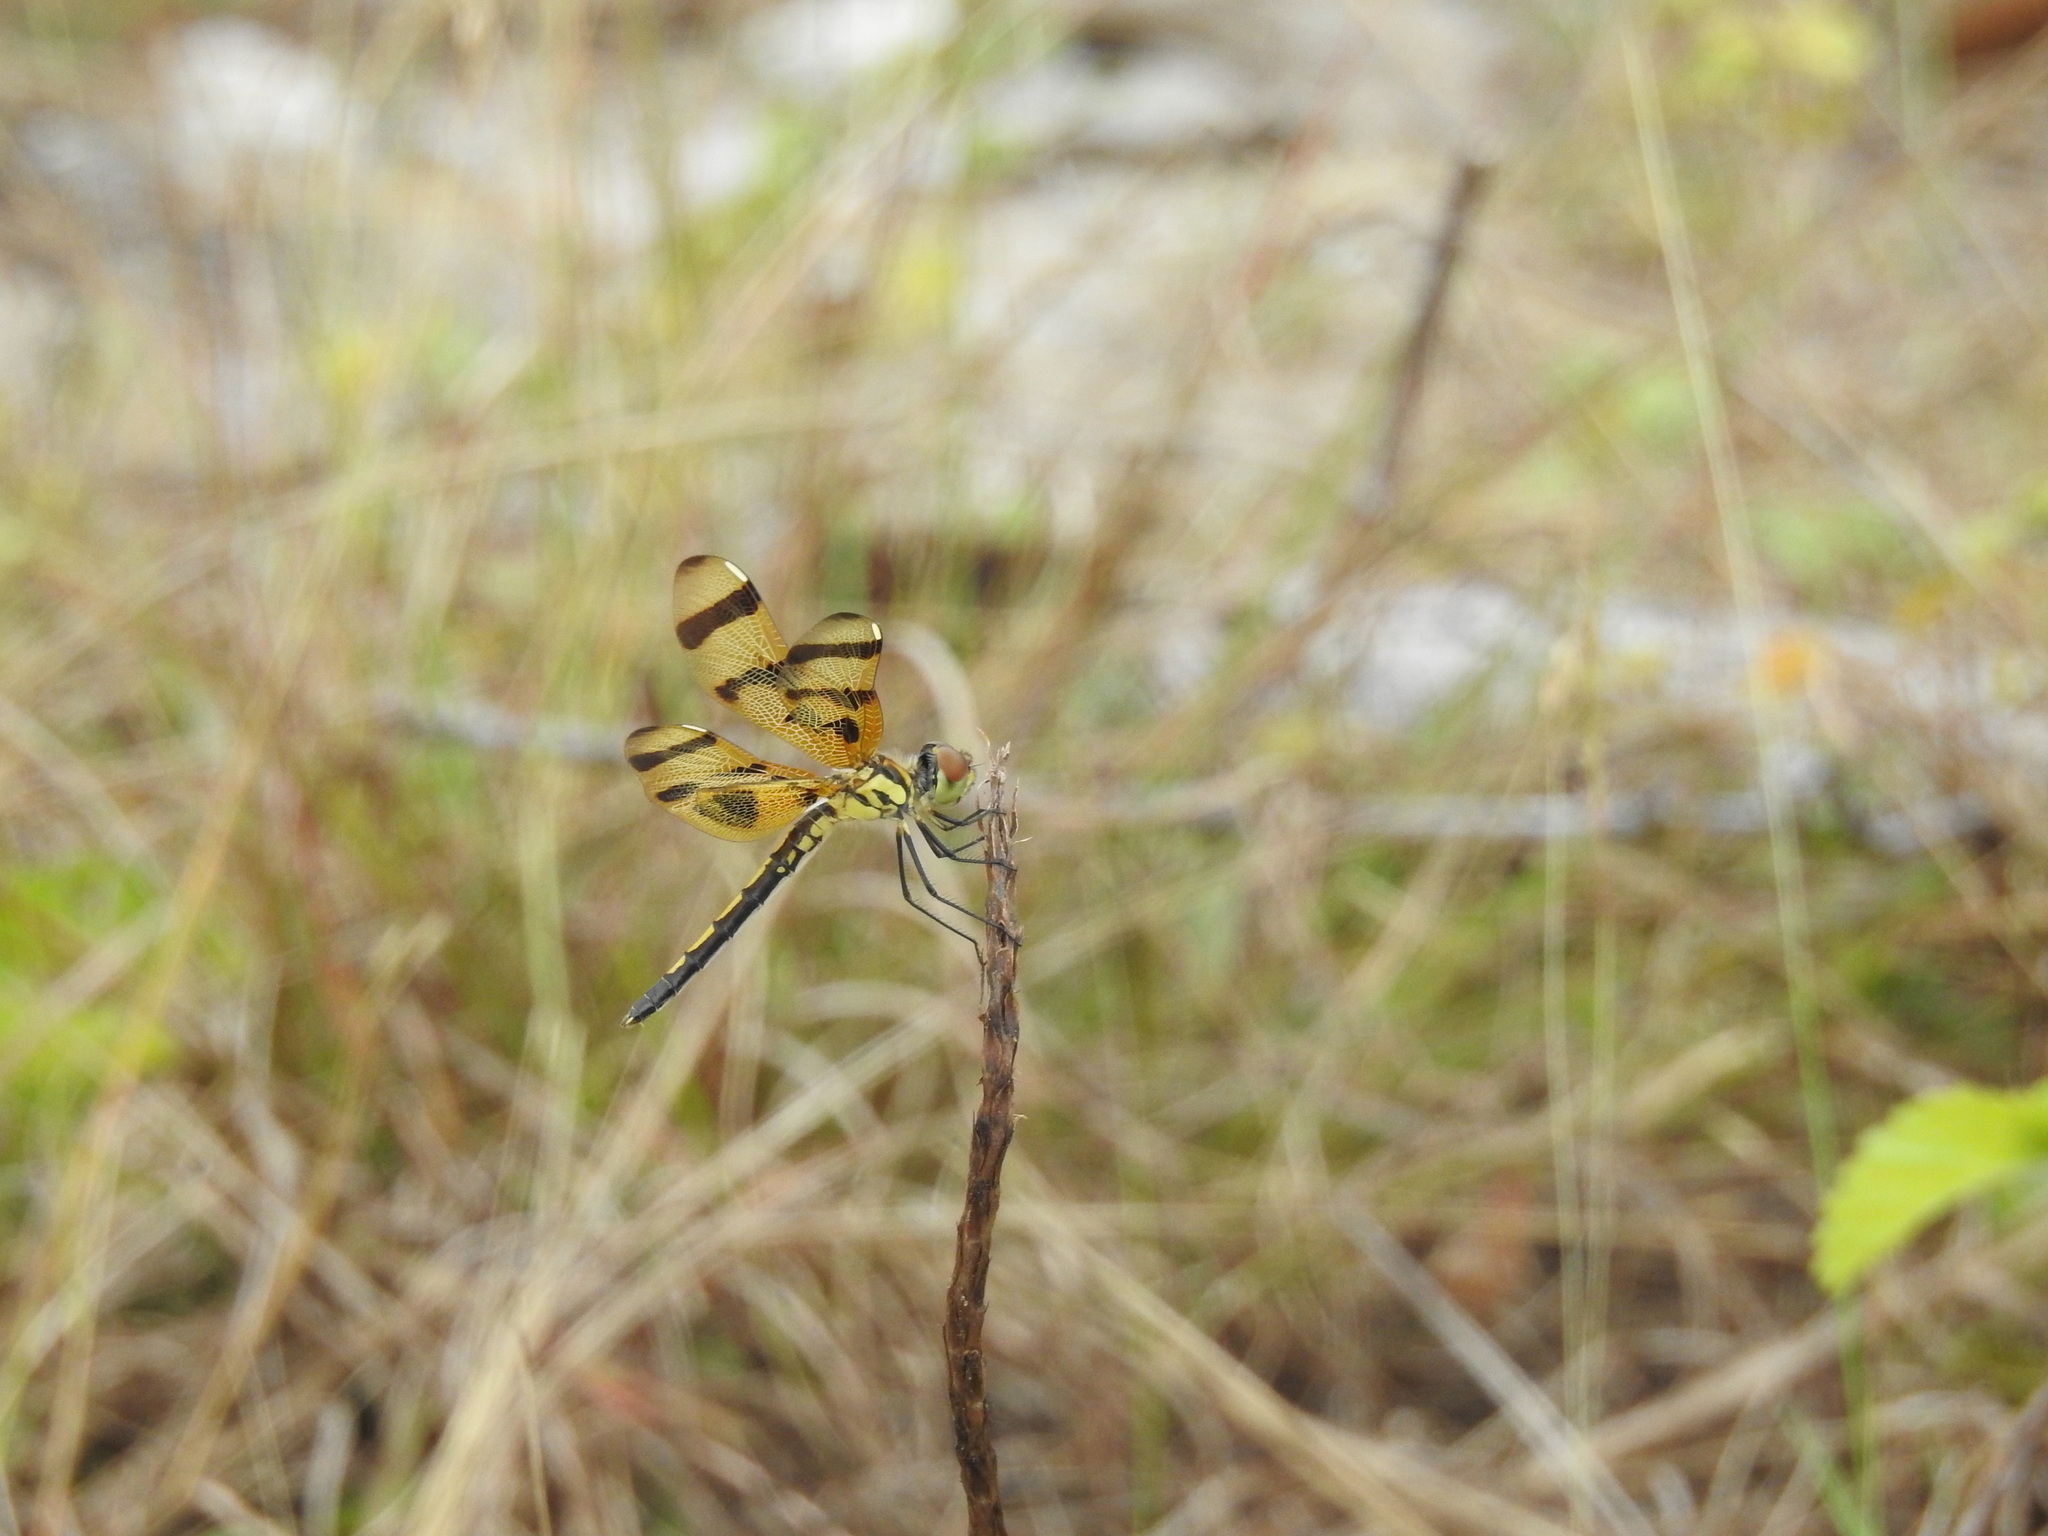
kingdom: Animalia
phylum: Arthropoda
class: Insecta
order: Odonata
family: Libellulidae
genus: Celithemis
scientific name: Celithemis eponina
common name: Halloween pennant
